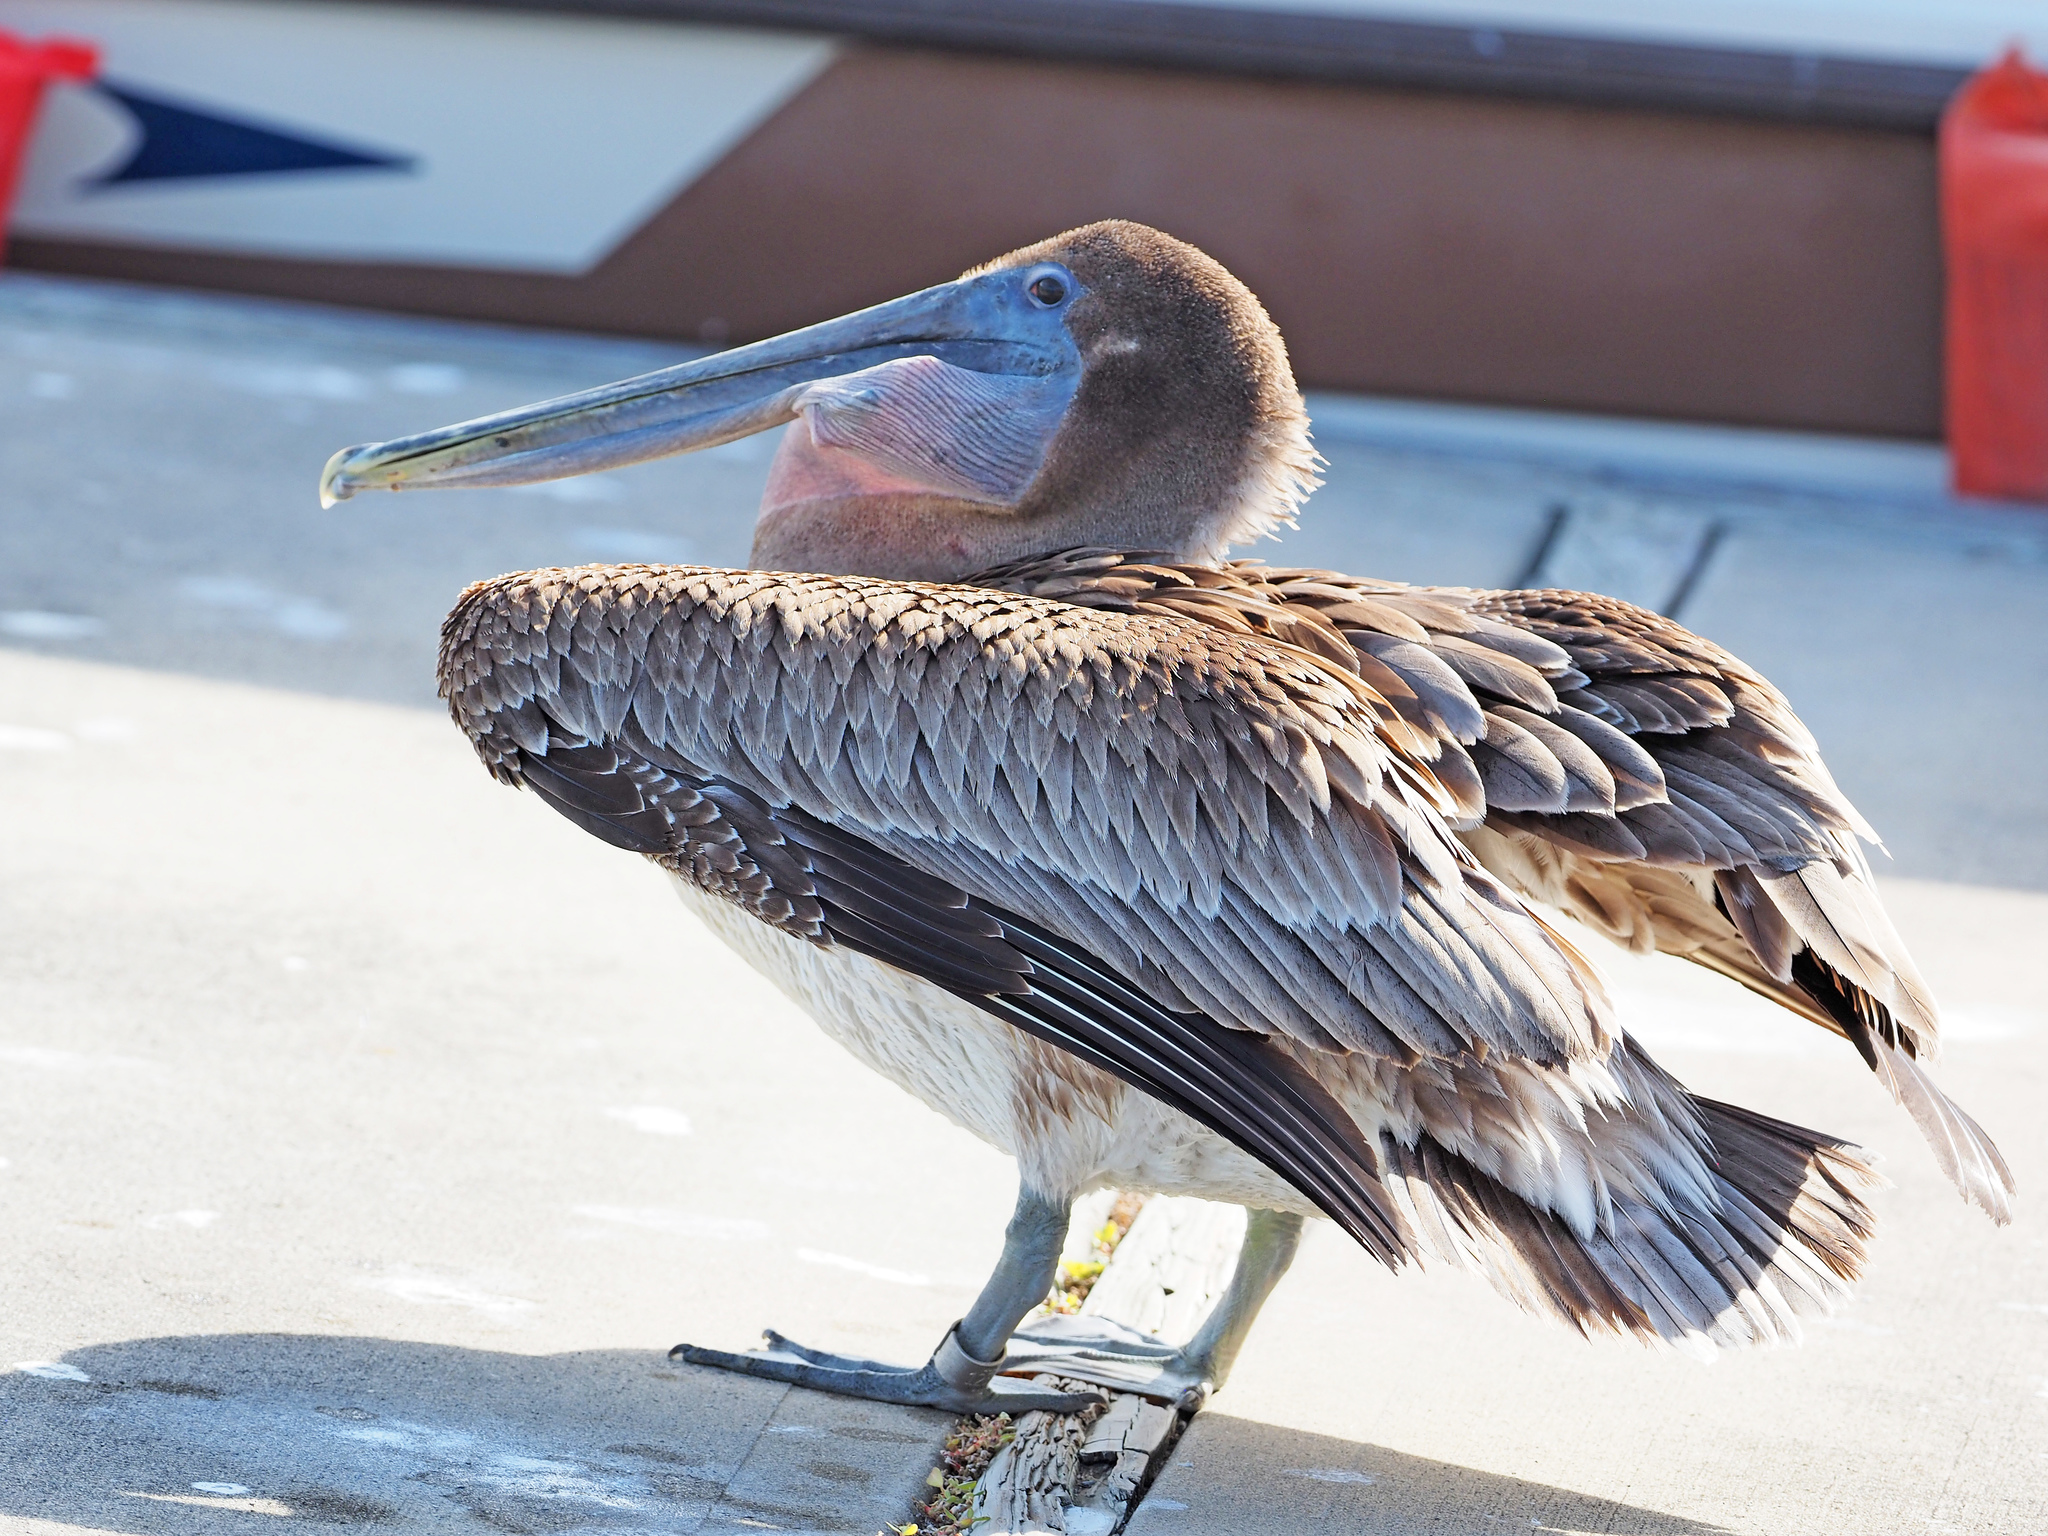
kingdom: Animalia
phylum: Chordata
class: Aves
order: Pelecaniformes
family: Pelecanidae
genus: Pelecanus
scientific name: Pelecanus occidentalis
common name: Brown pelican
